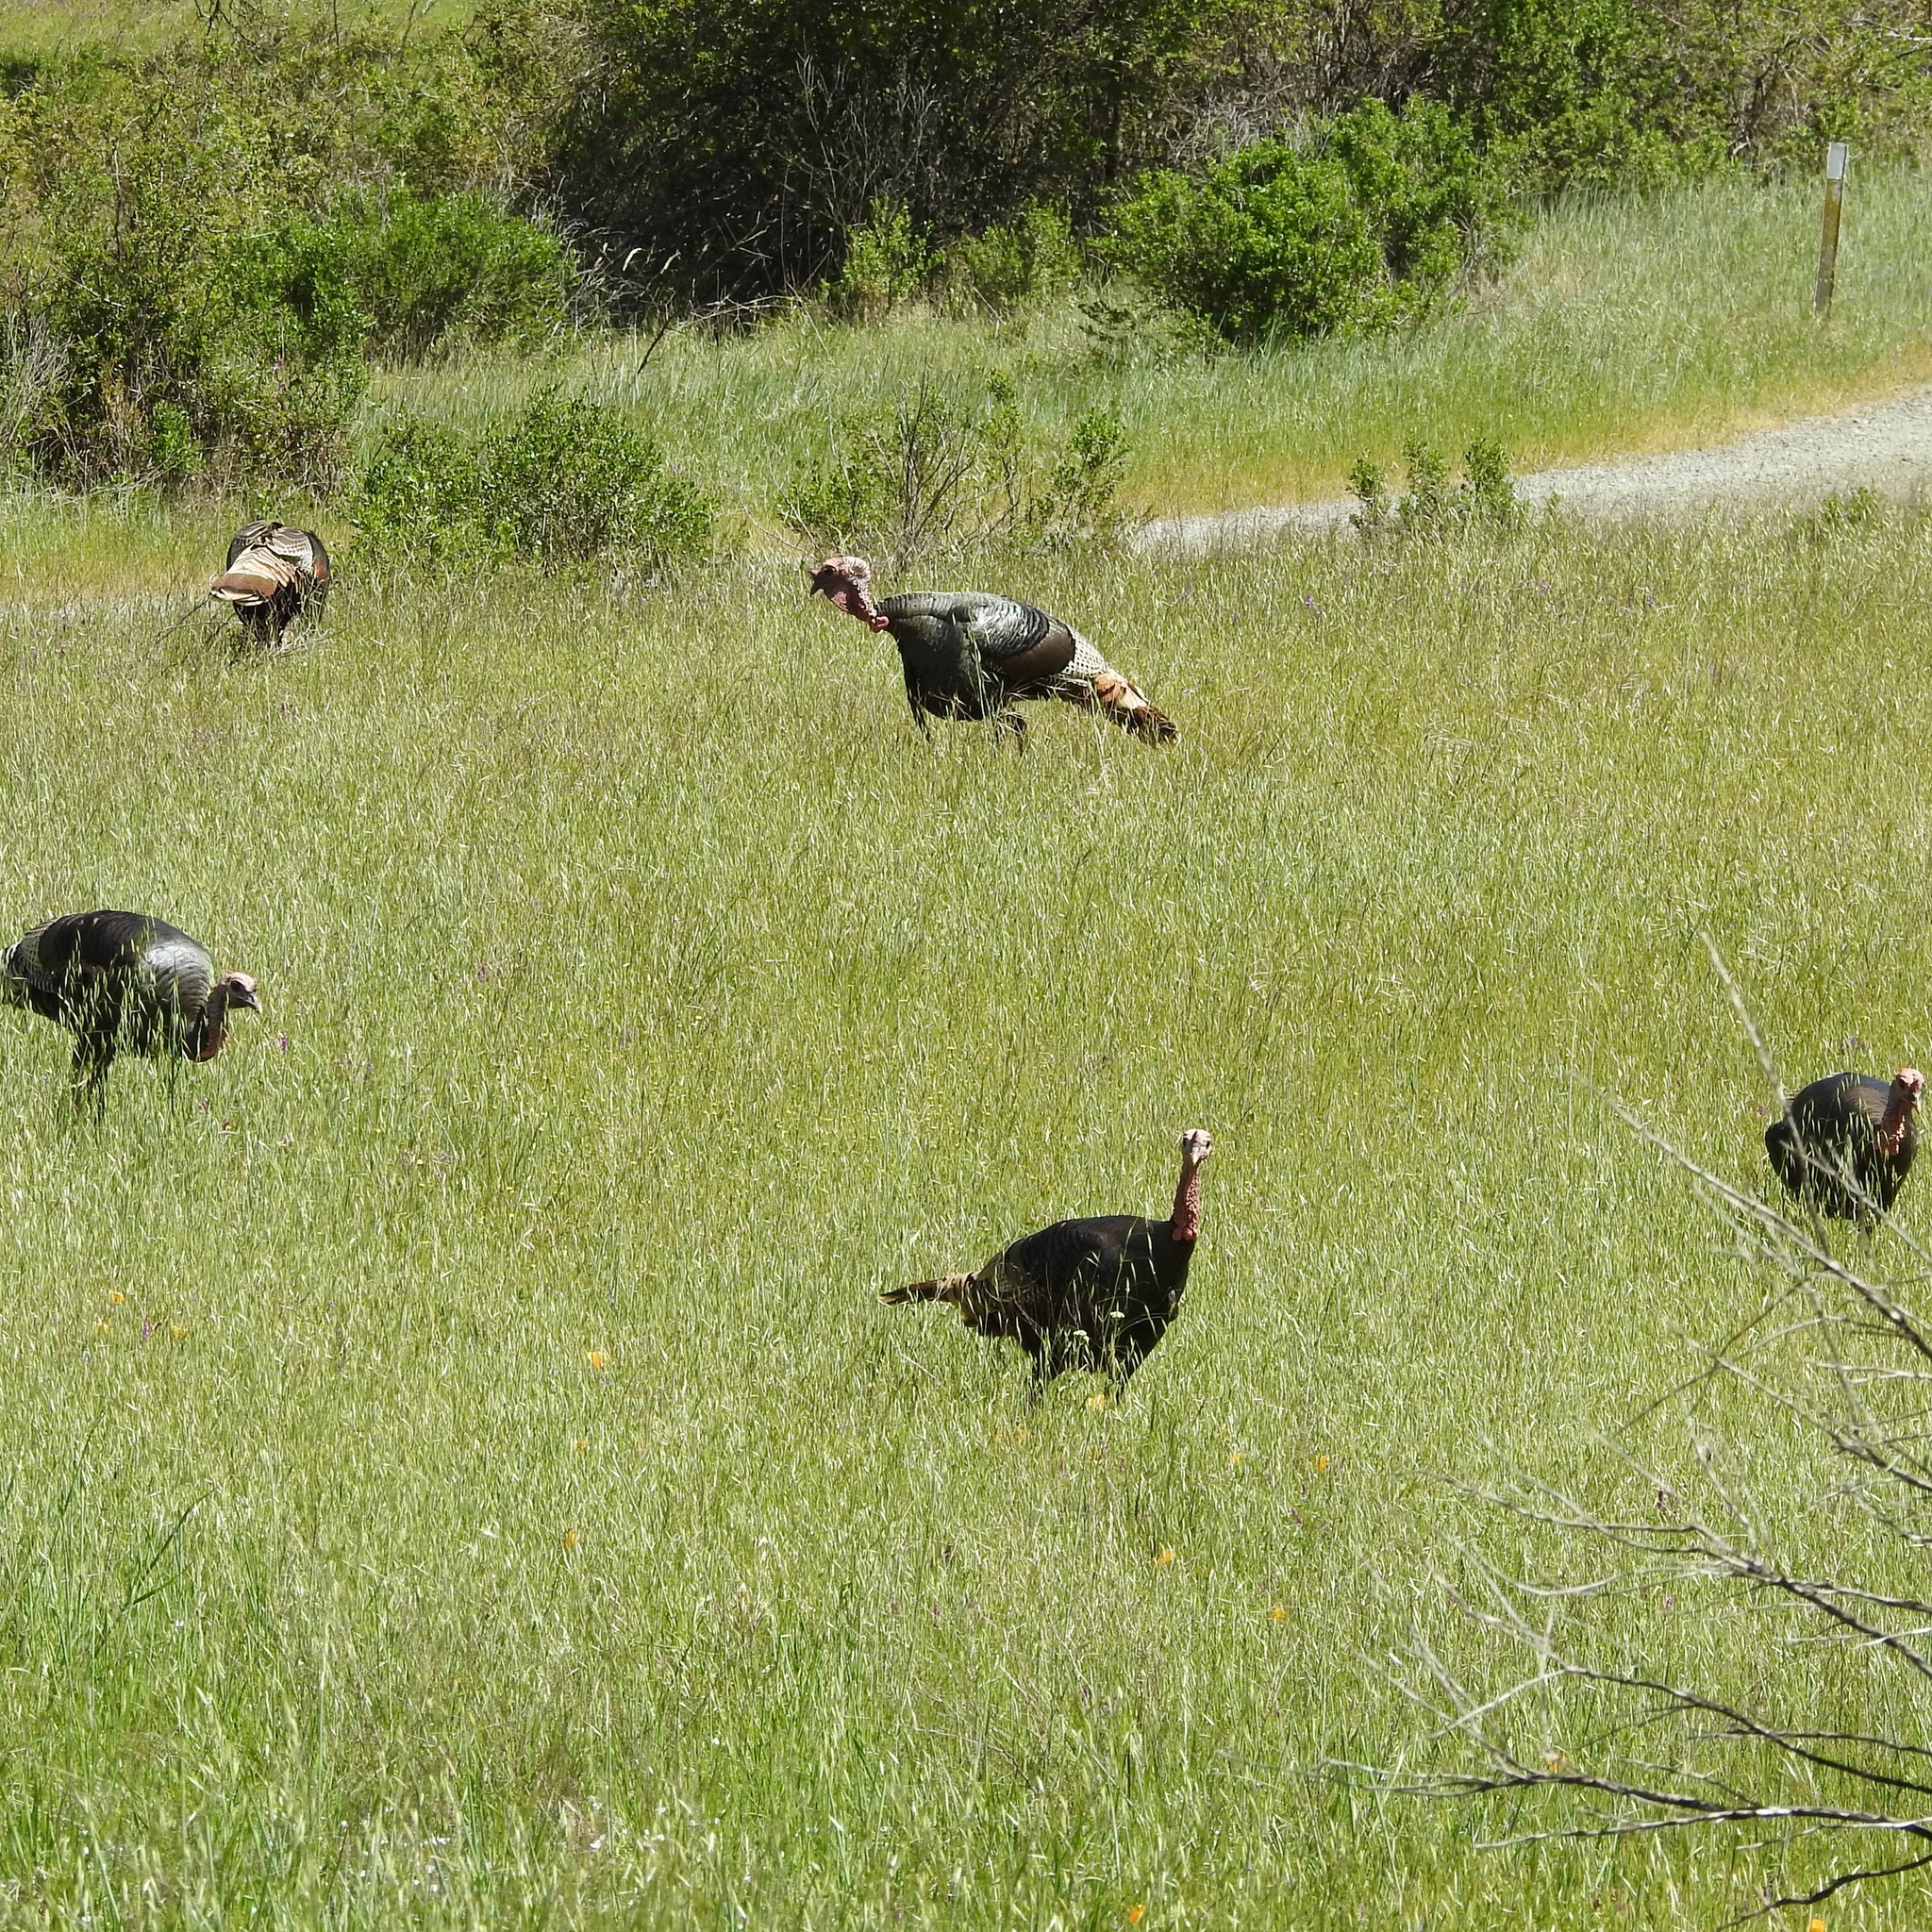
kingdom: Animalia
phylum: Chordata
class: Aves
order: Galliformes
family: Phasianidae
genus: Meleagris
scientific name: Meleagris gallopavo
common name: Wild turkey
